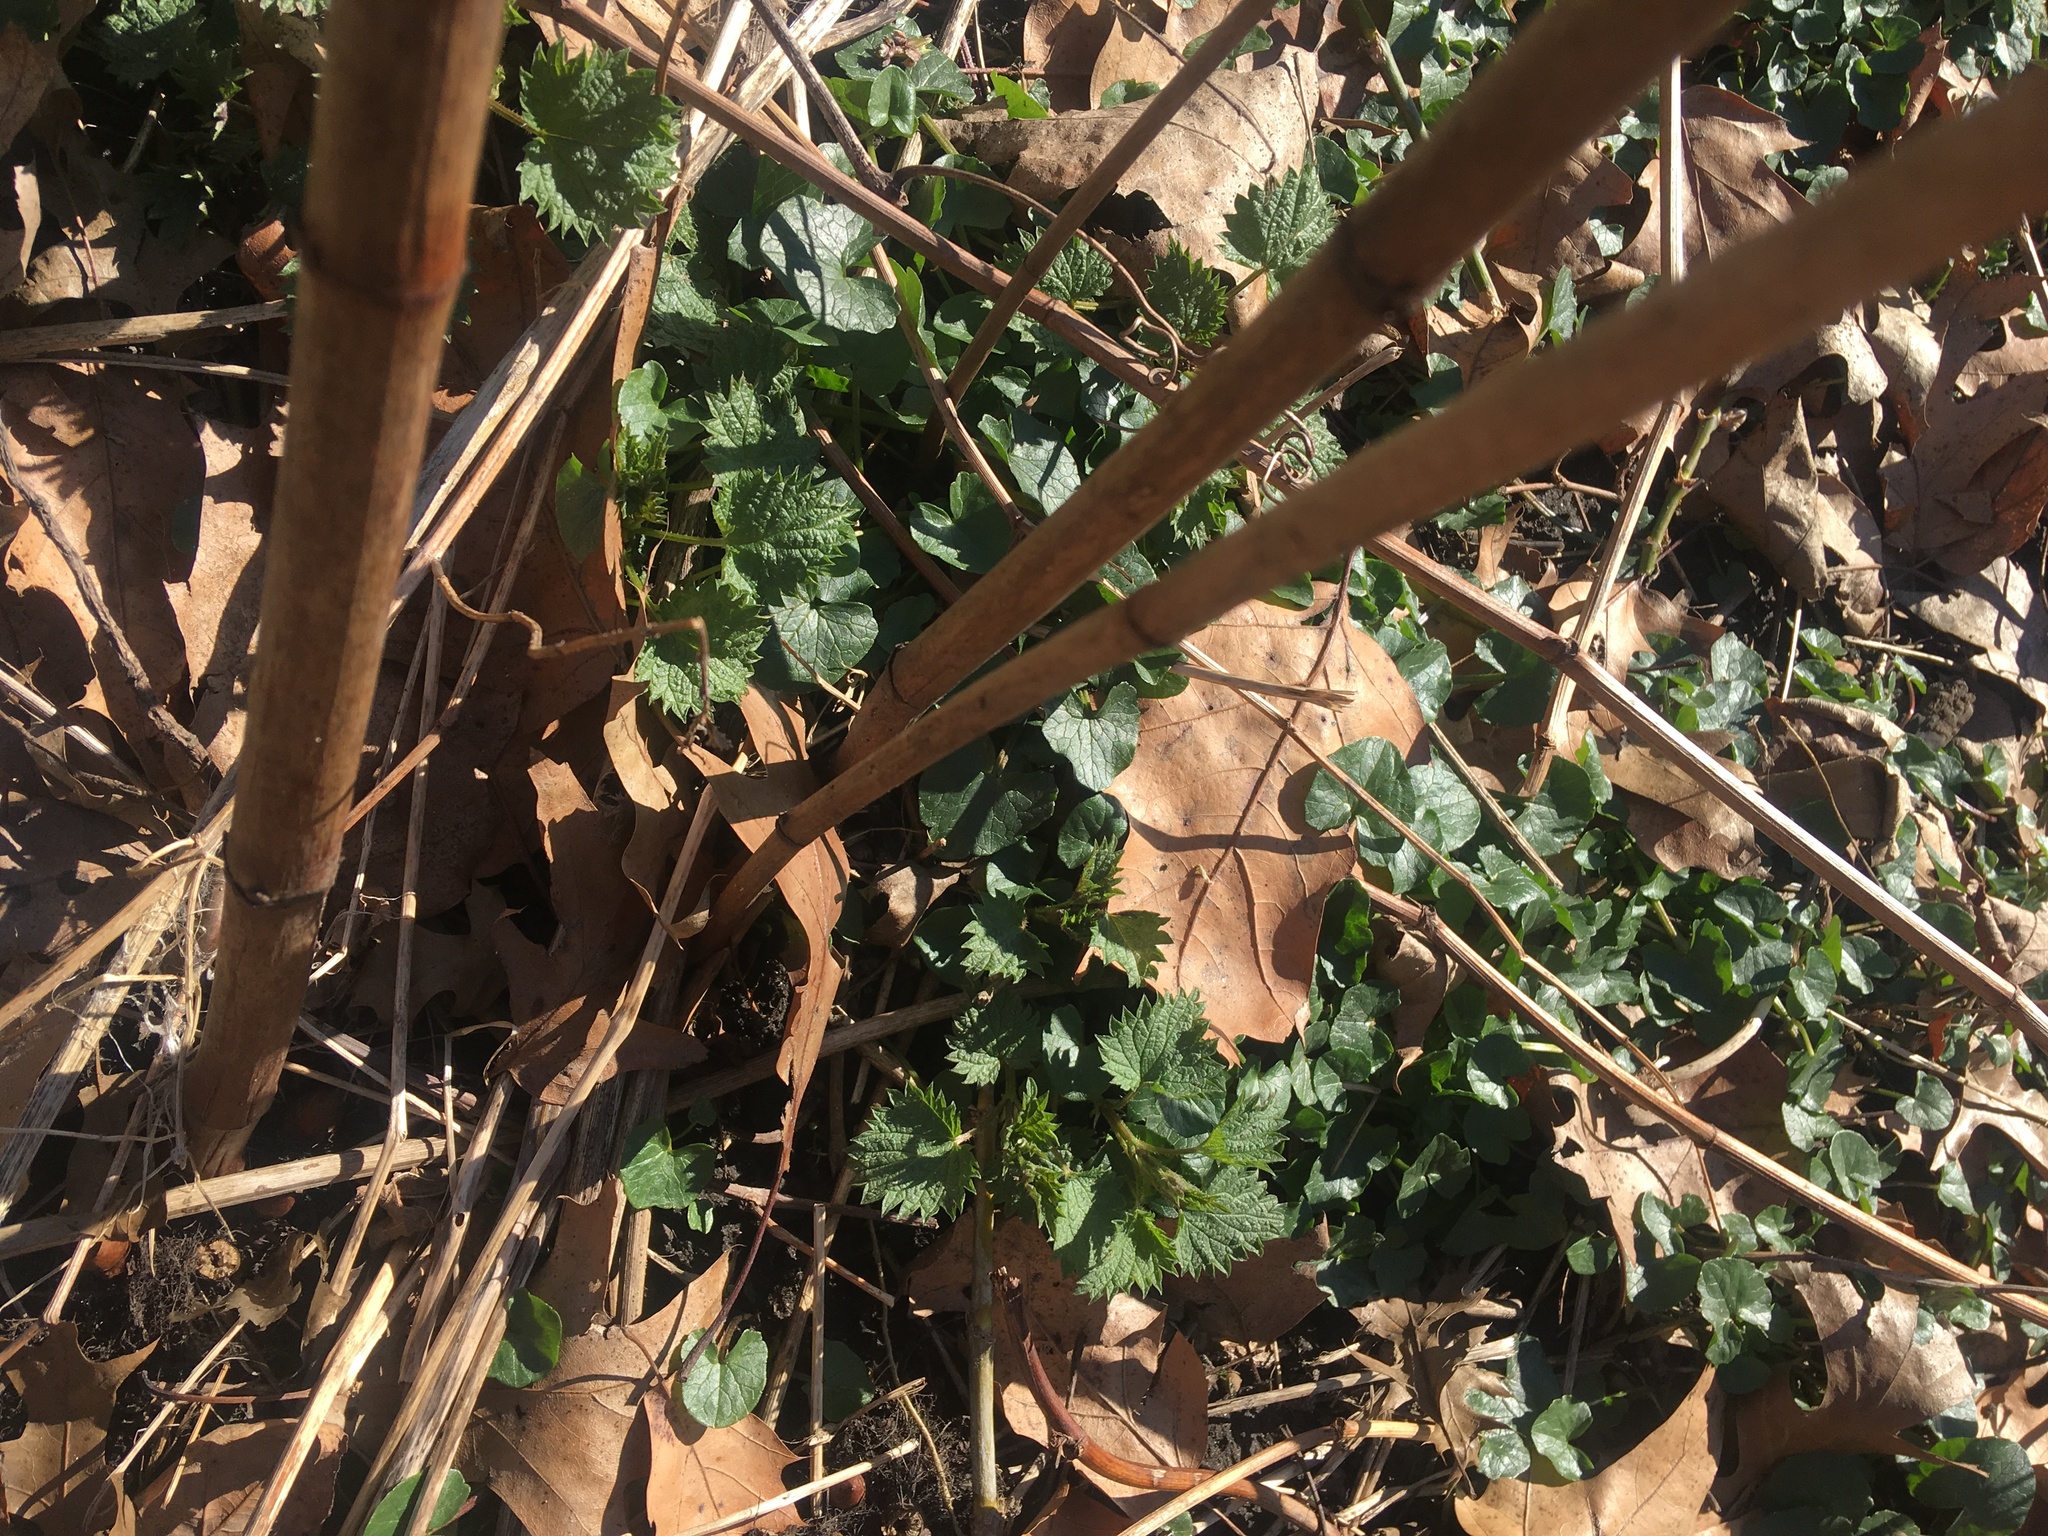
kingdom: Plantae
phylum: Tracheophyta
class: Magnoliopsida
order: Ranunculales
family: Ranunculaceae
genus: Ficaria
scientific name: Ficaria verna
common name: Lesser celandine
